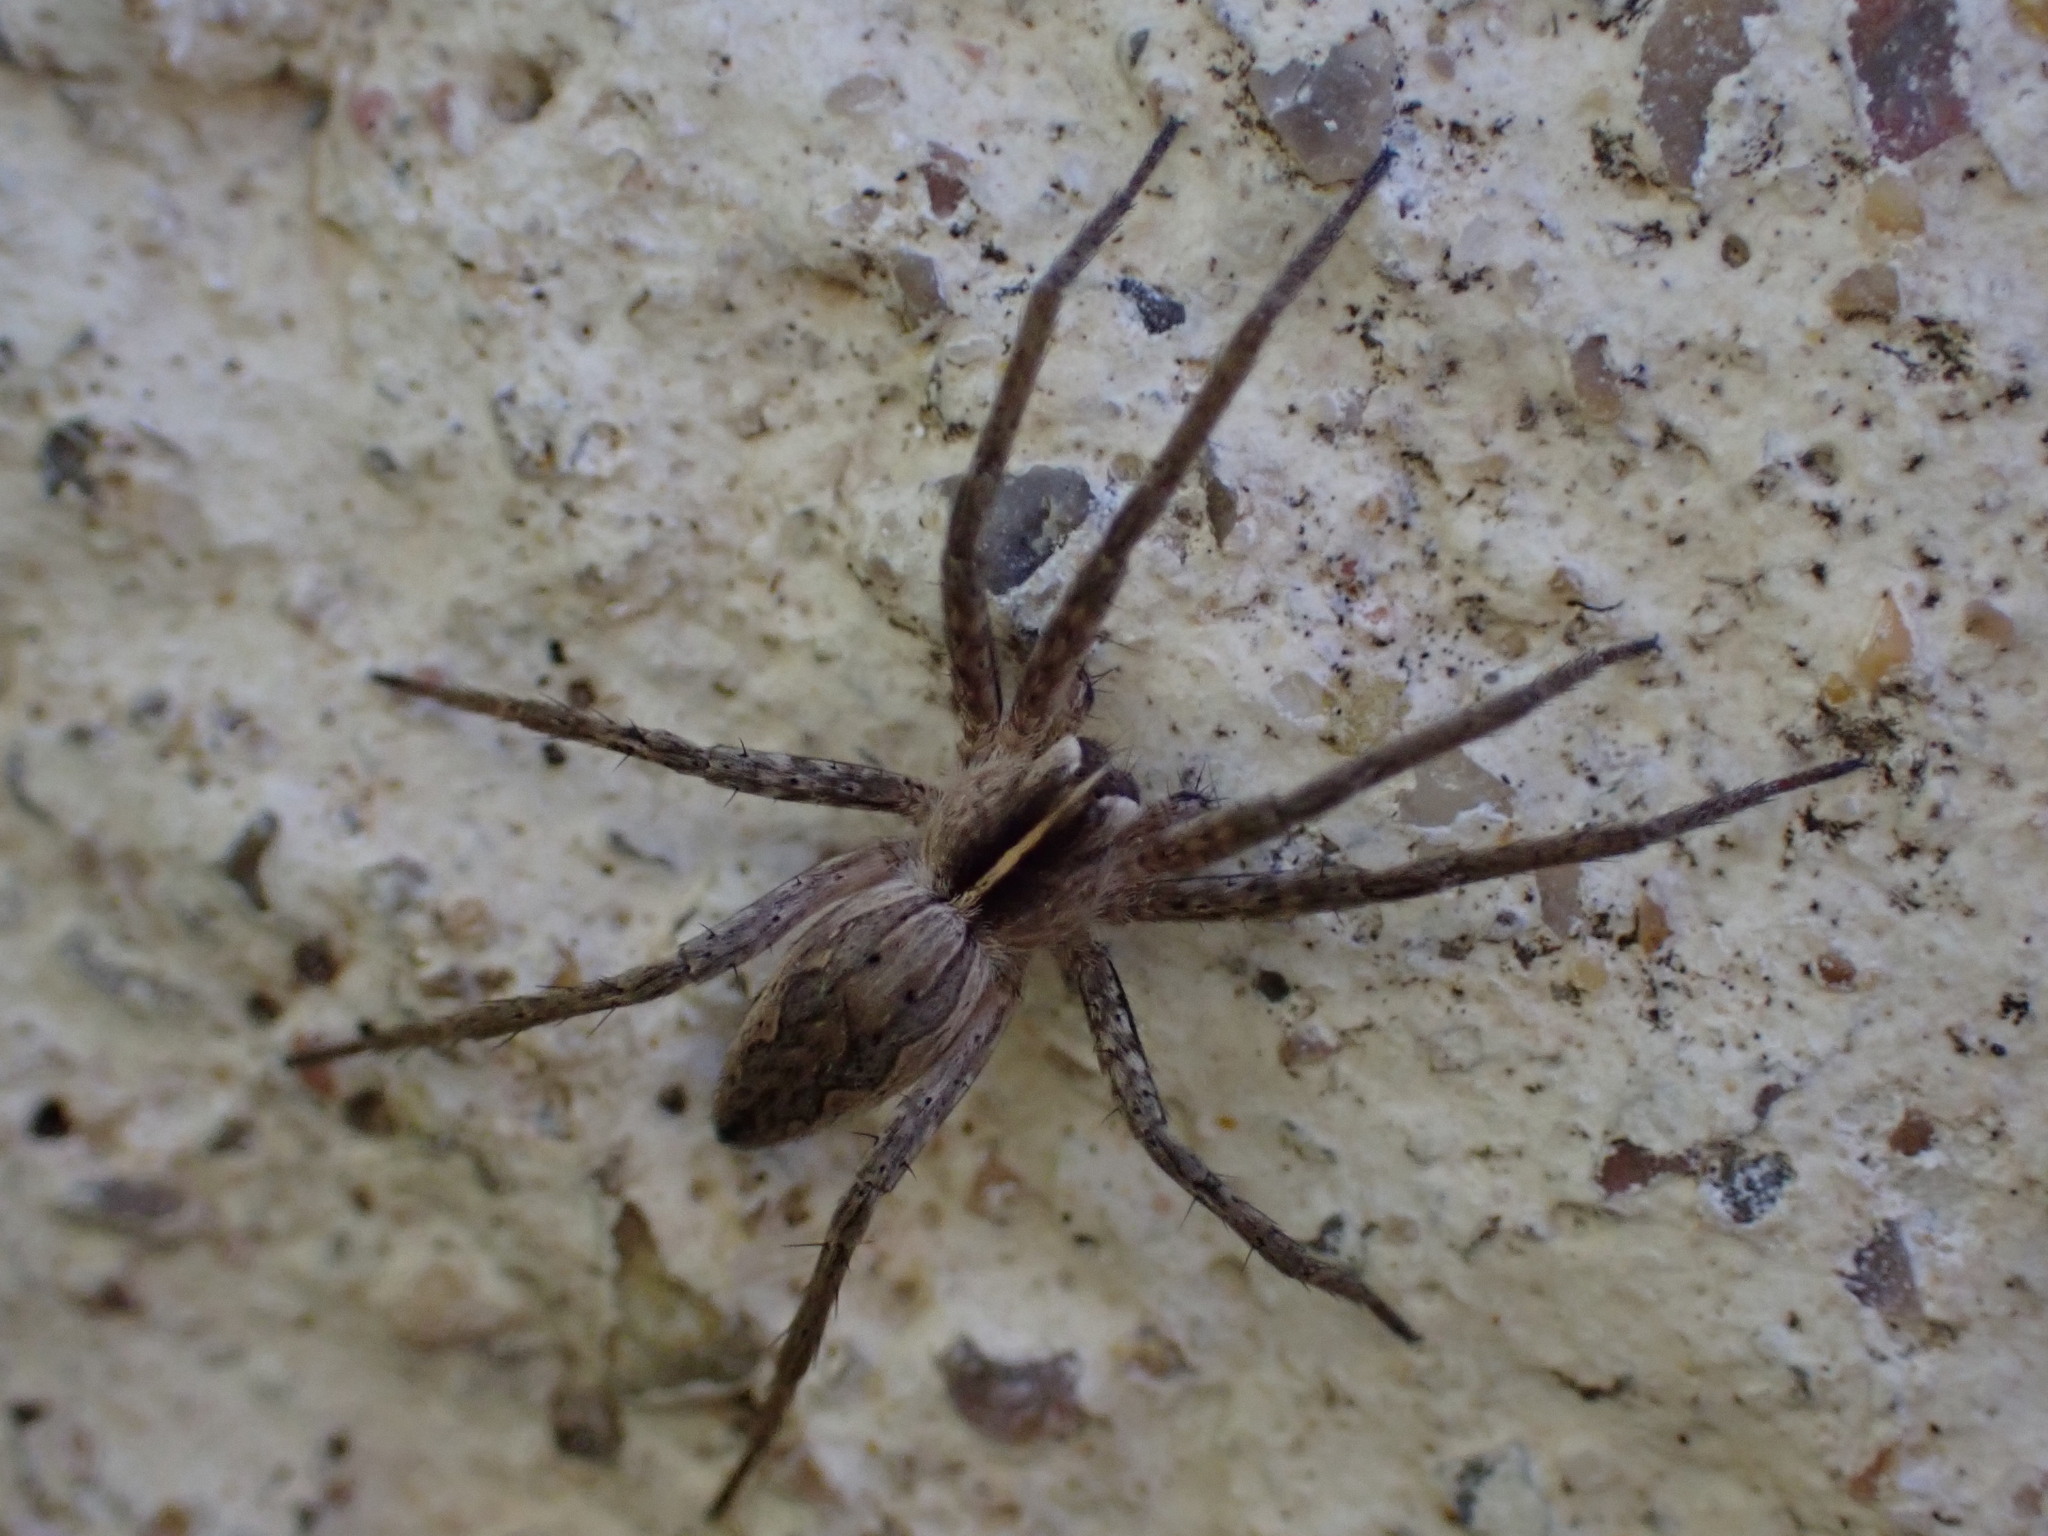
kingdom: Animalia
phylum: Arthropoda
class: Arachnida
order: Araneae
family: Pisauridae
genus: Pisaura
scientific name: Pisaura
